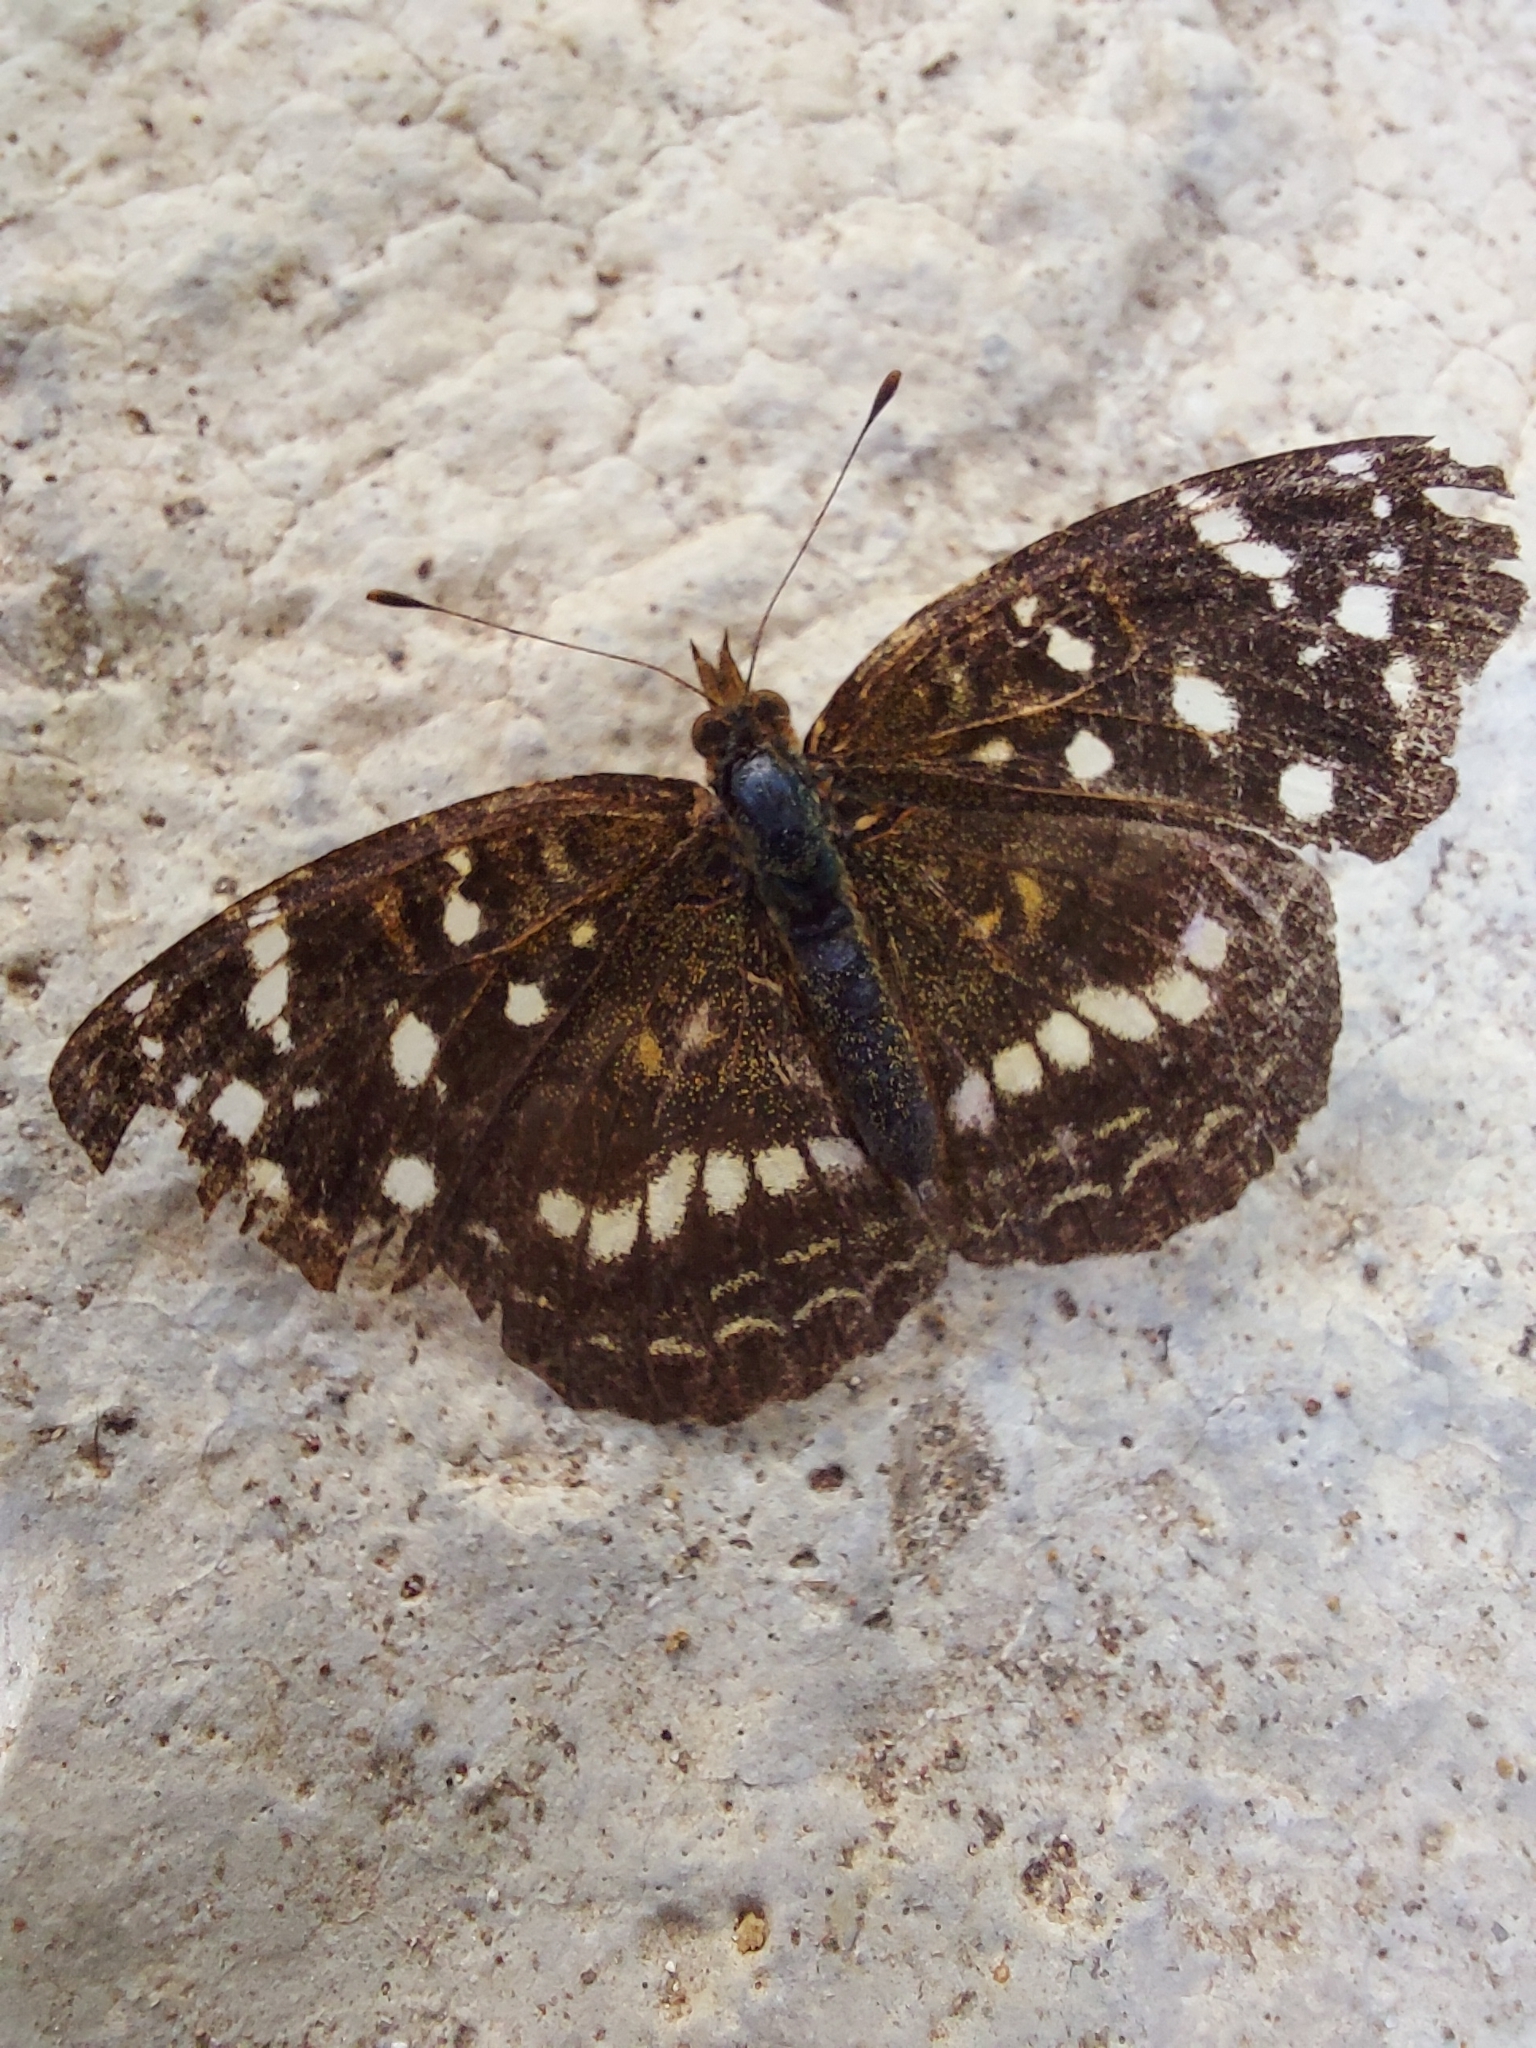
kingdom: Animalia
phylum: Arthropoda
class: Insecta
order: Lepidoptera
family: Nymphalidae
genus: Anthanassa
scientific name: Anthanassa ardys
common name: Ardys crescent
